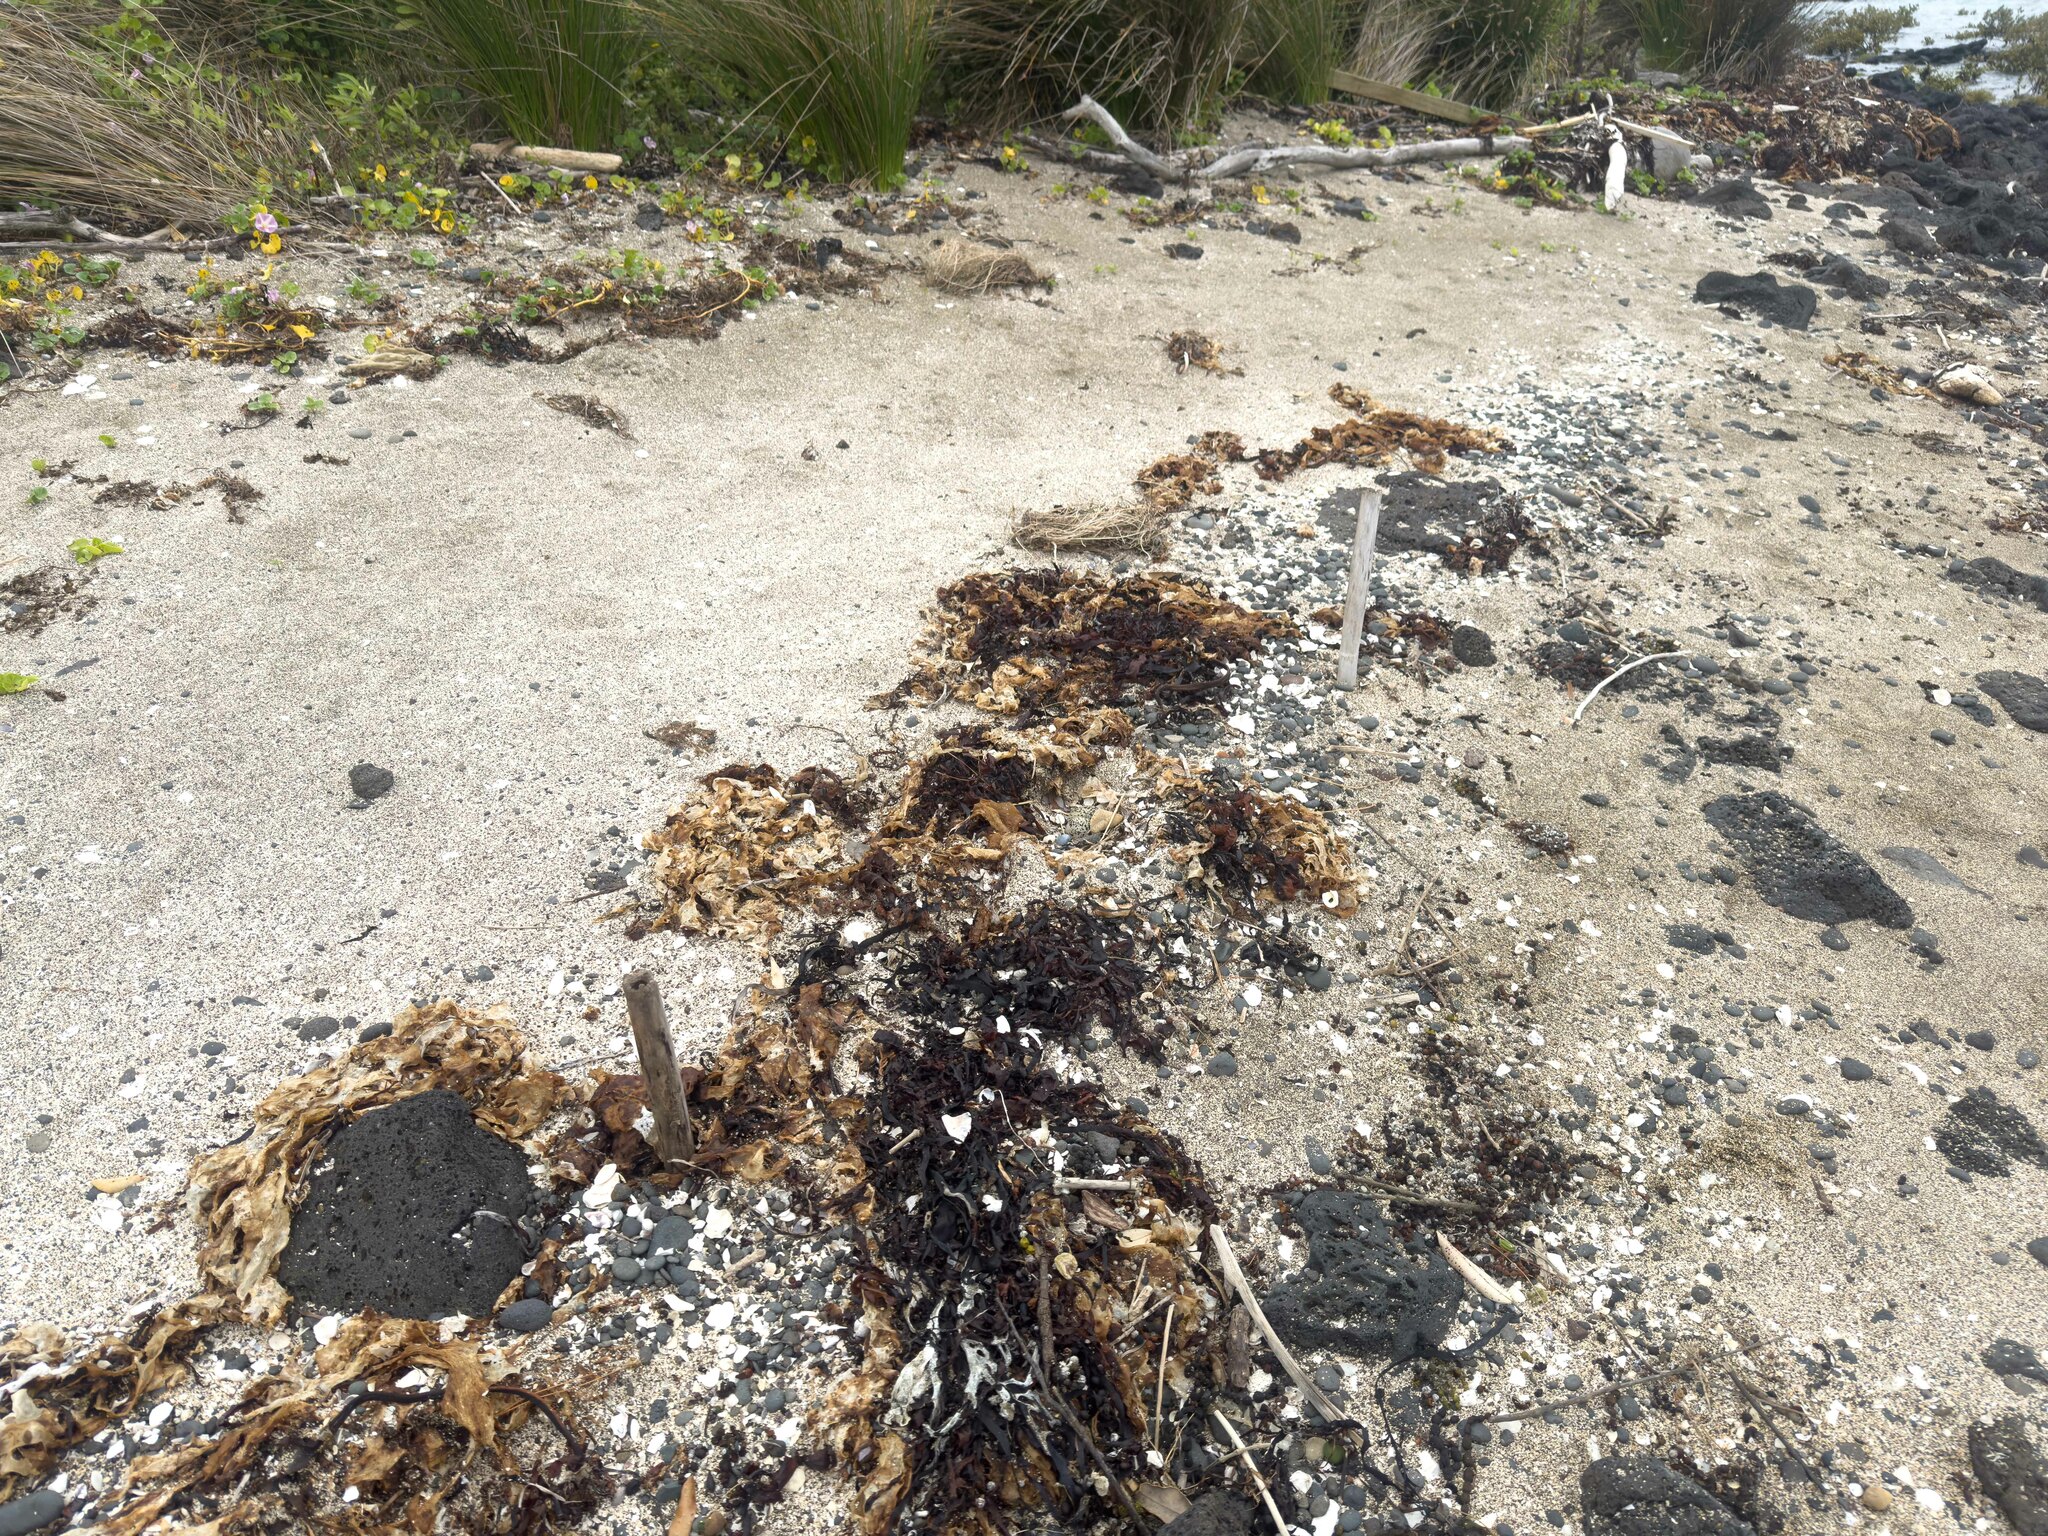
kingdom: Animalia
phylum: Chordata
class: Aves
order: Charadriiformes
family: Charadriidae
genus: Anarhynchus
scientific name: Anarhynchus
